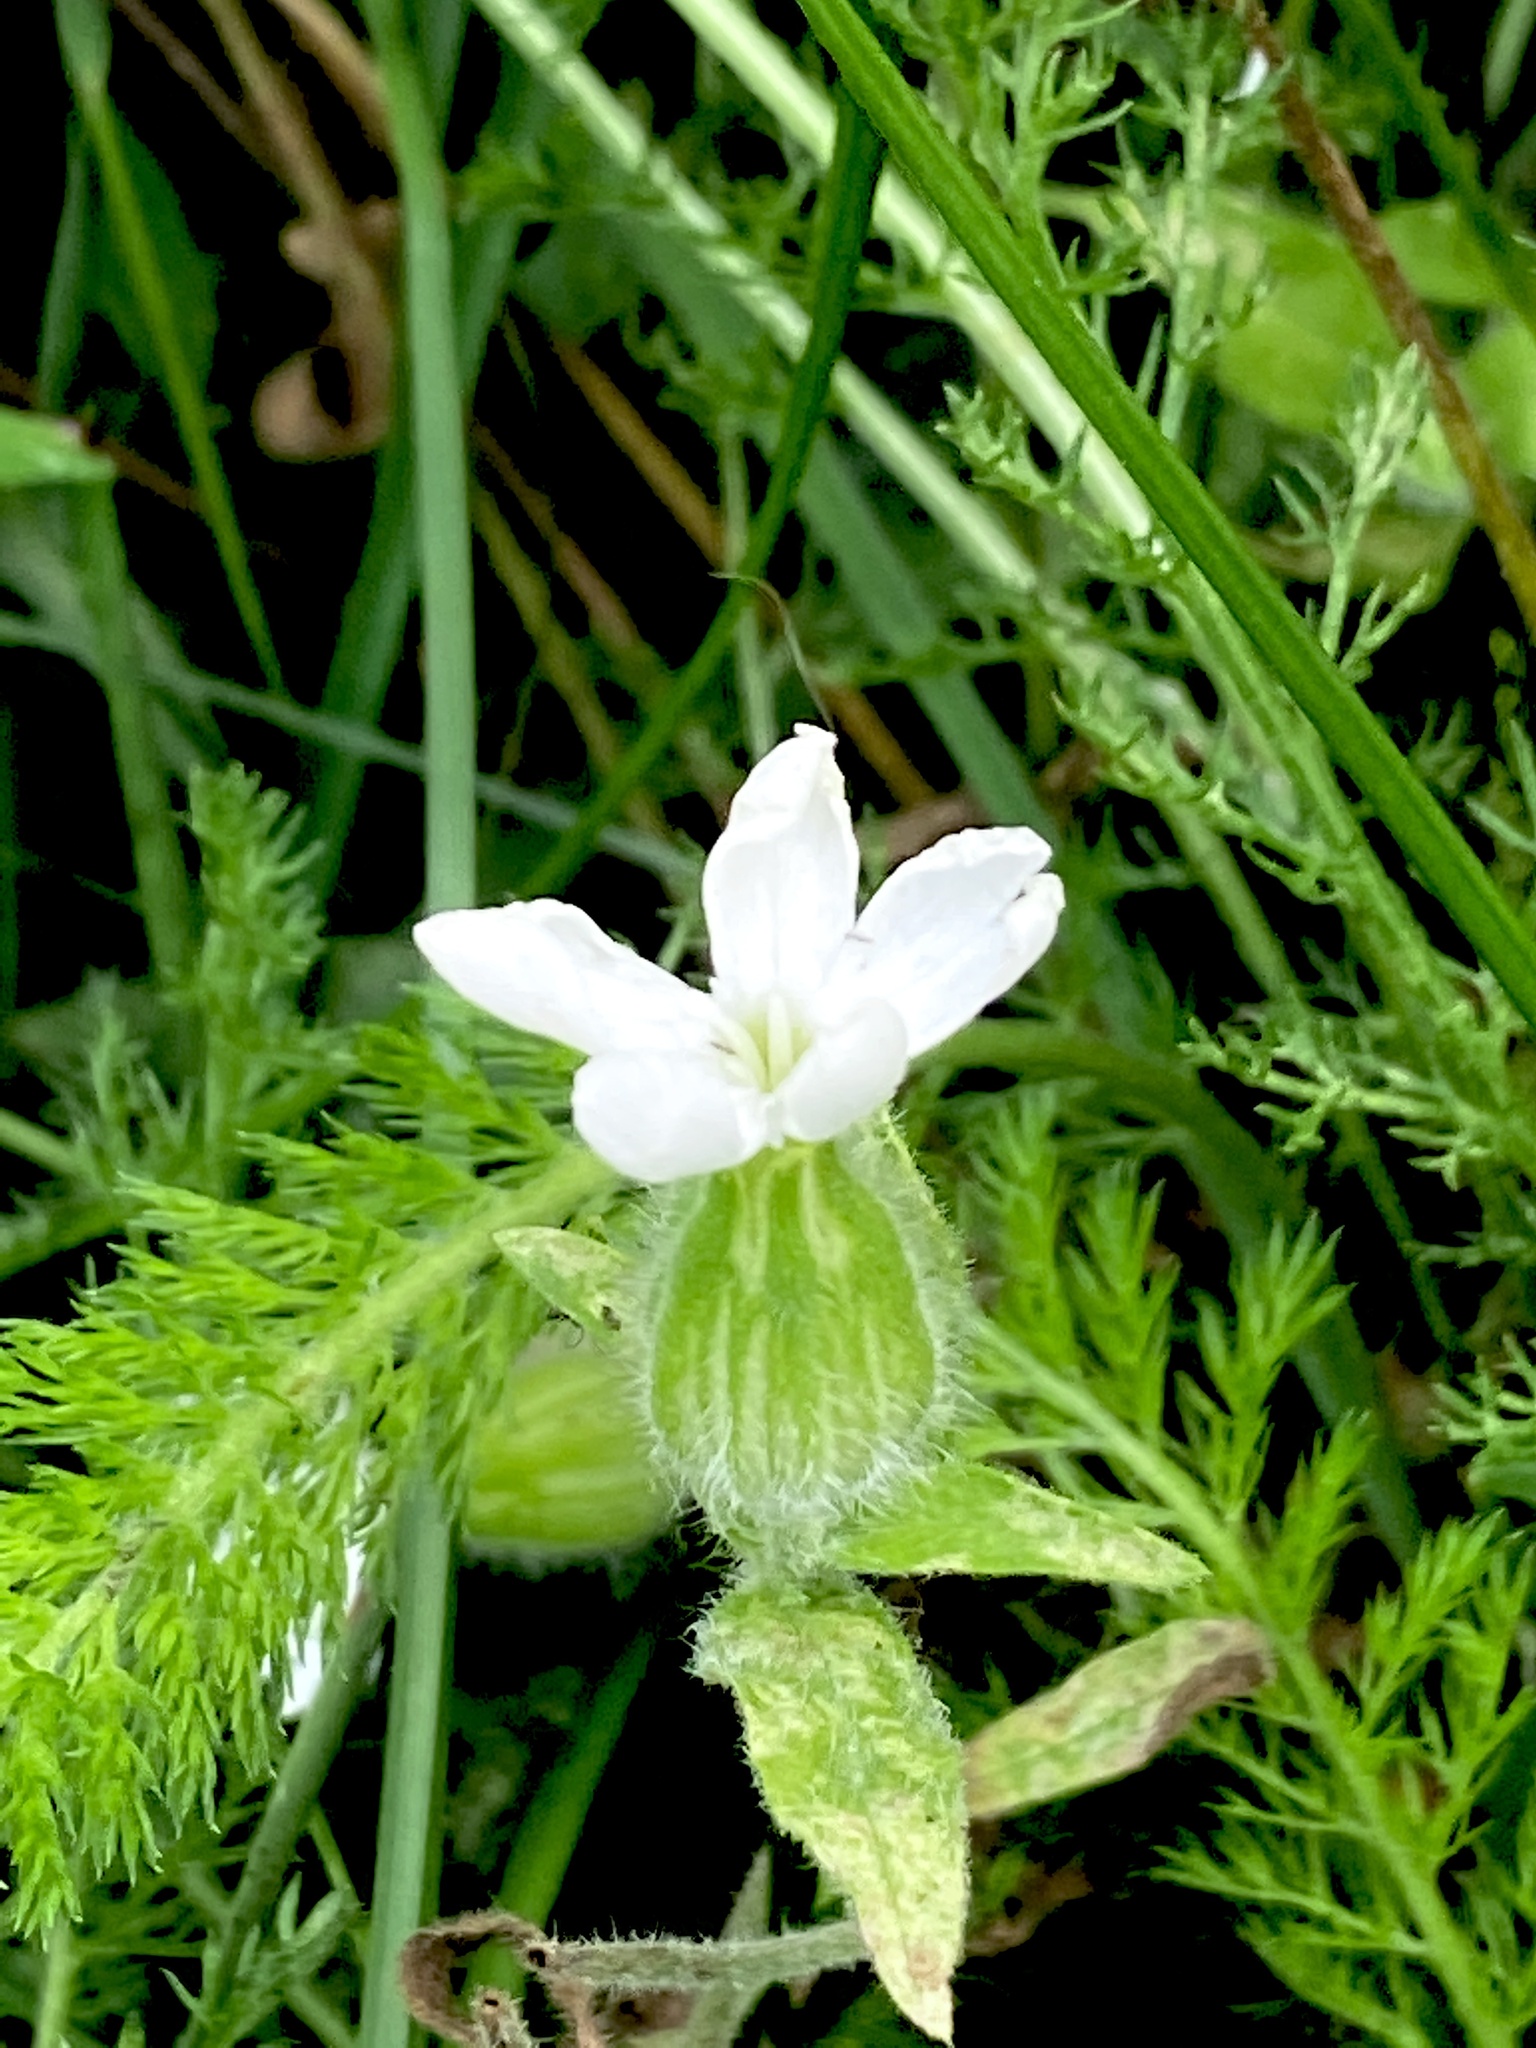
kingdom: Plantae
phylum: Tracheophyta
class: Magnoliopsida
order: Caryophyllales
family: Caryophyllaceae
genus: Silene
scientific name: Silene latifolia
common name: White campion
